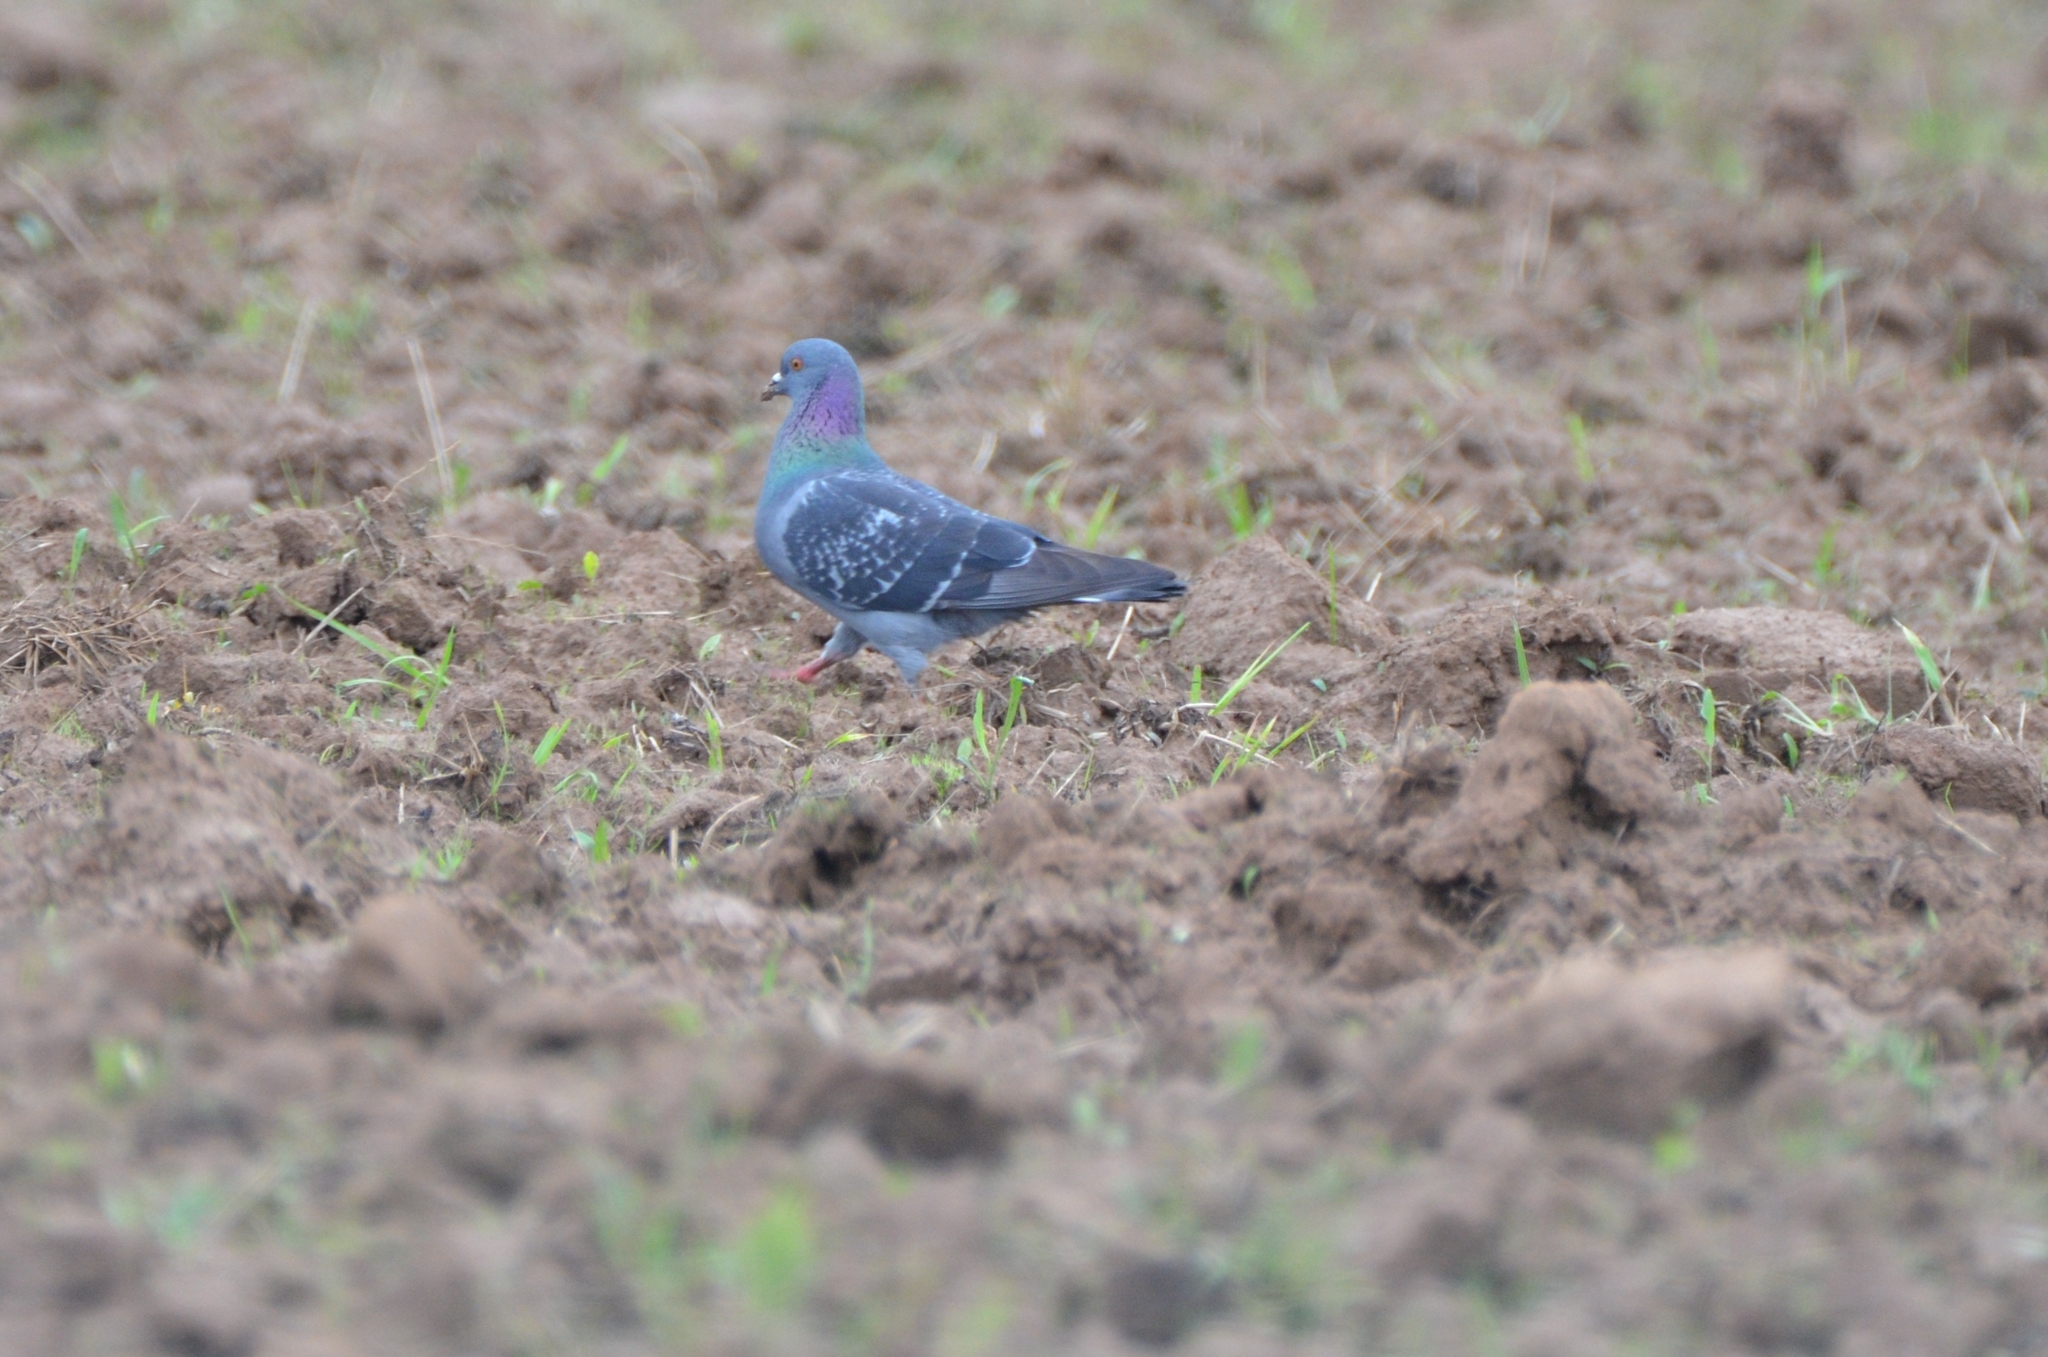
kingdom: Animalia
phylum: Chordata
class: Aves
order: Columbiformes
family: Columbidae
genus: Columba
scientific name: Columba livia
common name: Rock pigeon
